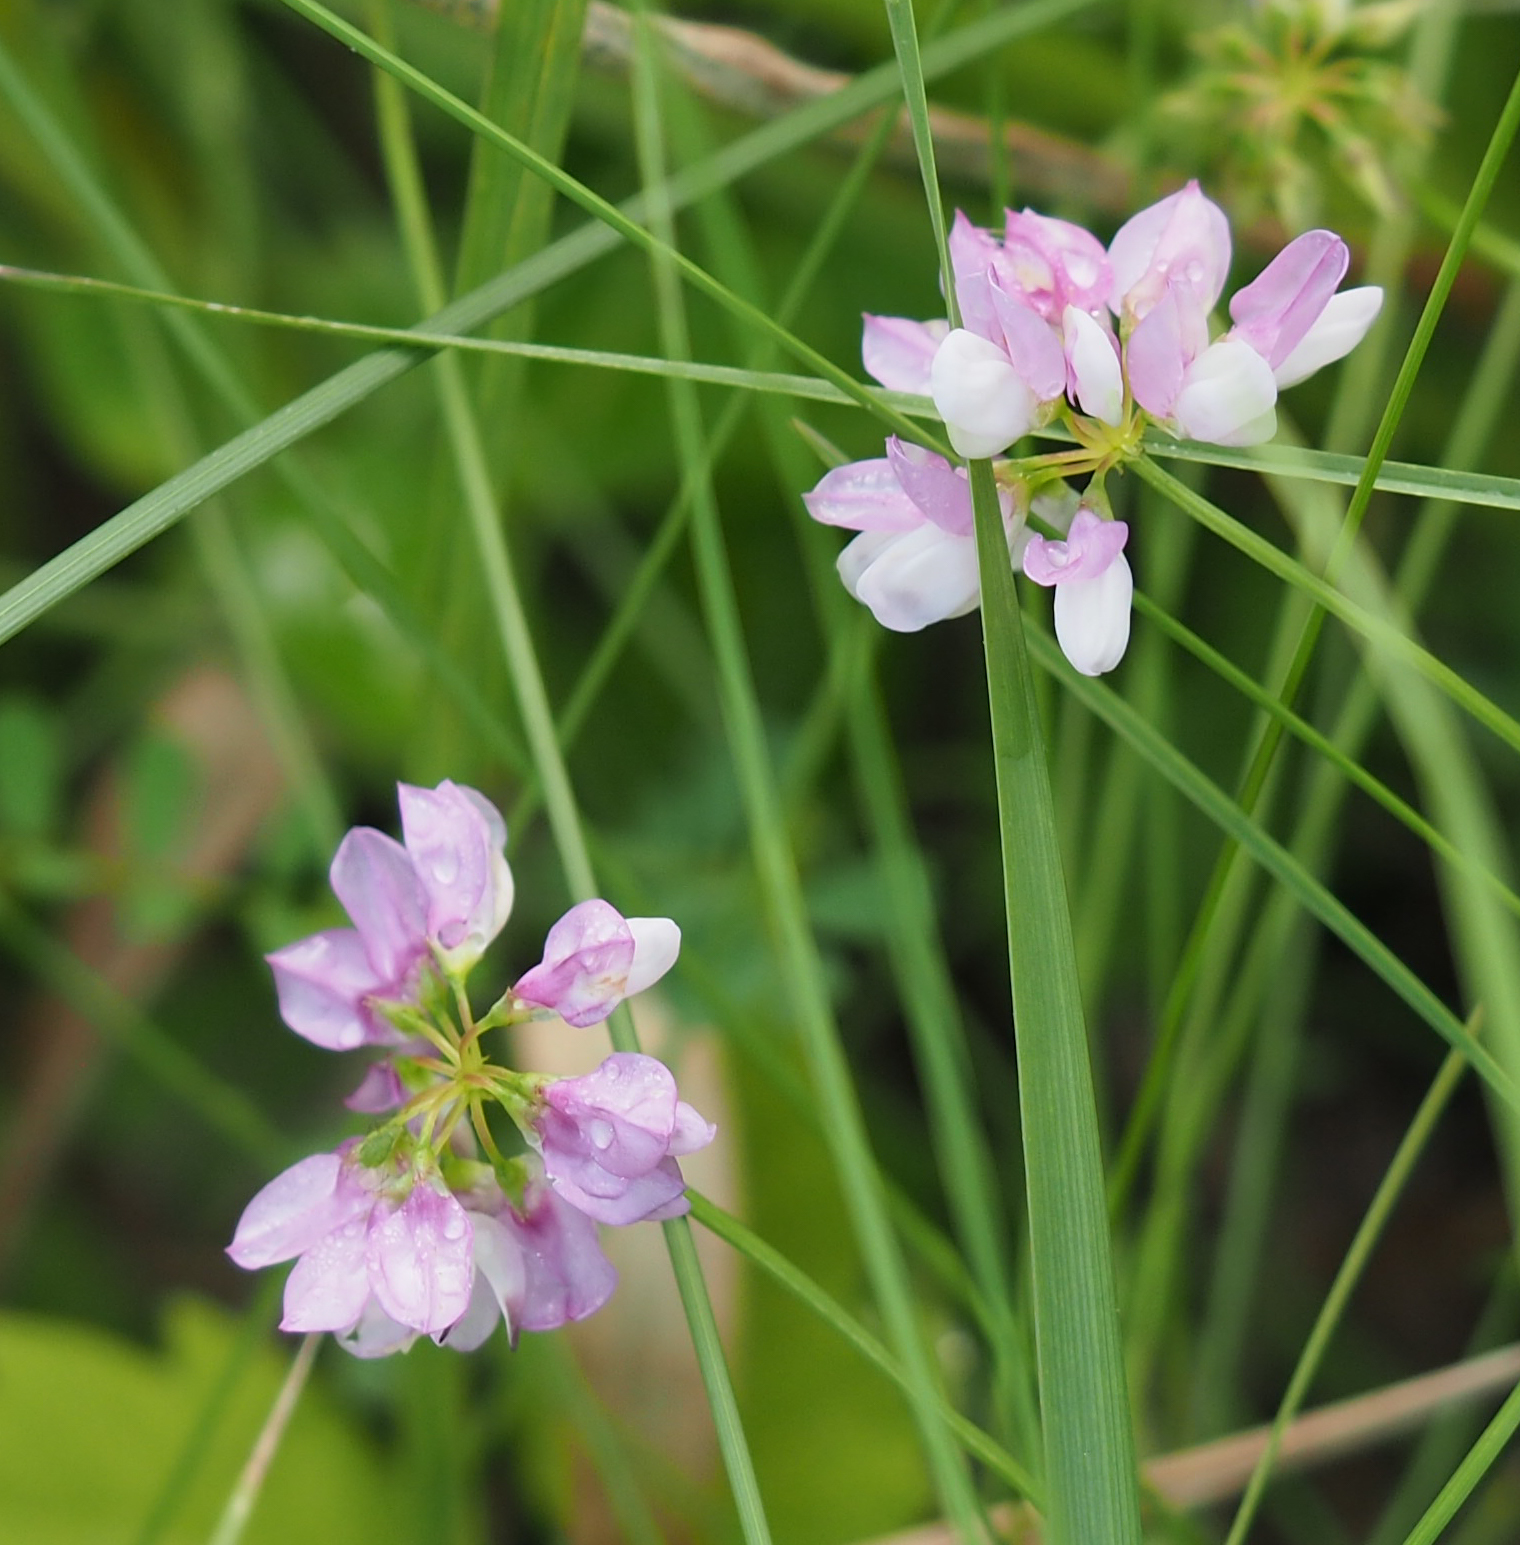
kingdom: Plantae
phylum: Tracheophyta
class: Magnoliopsida
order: Fabales
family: Fabaceae
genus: Coronilla
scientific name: Coronilla varia
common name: Crownvetch
